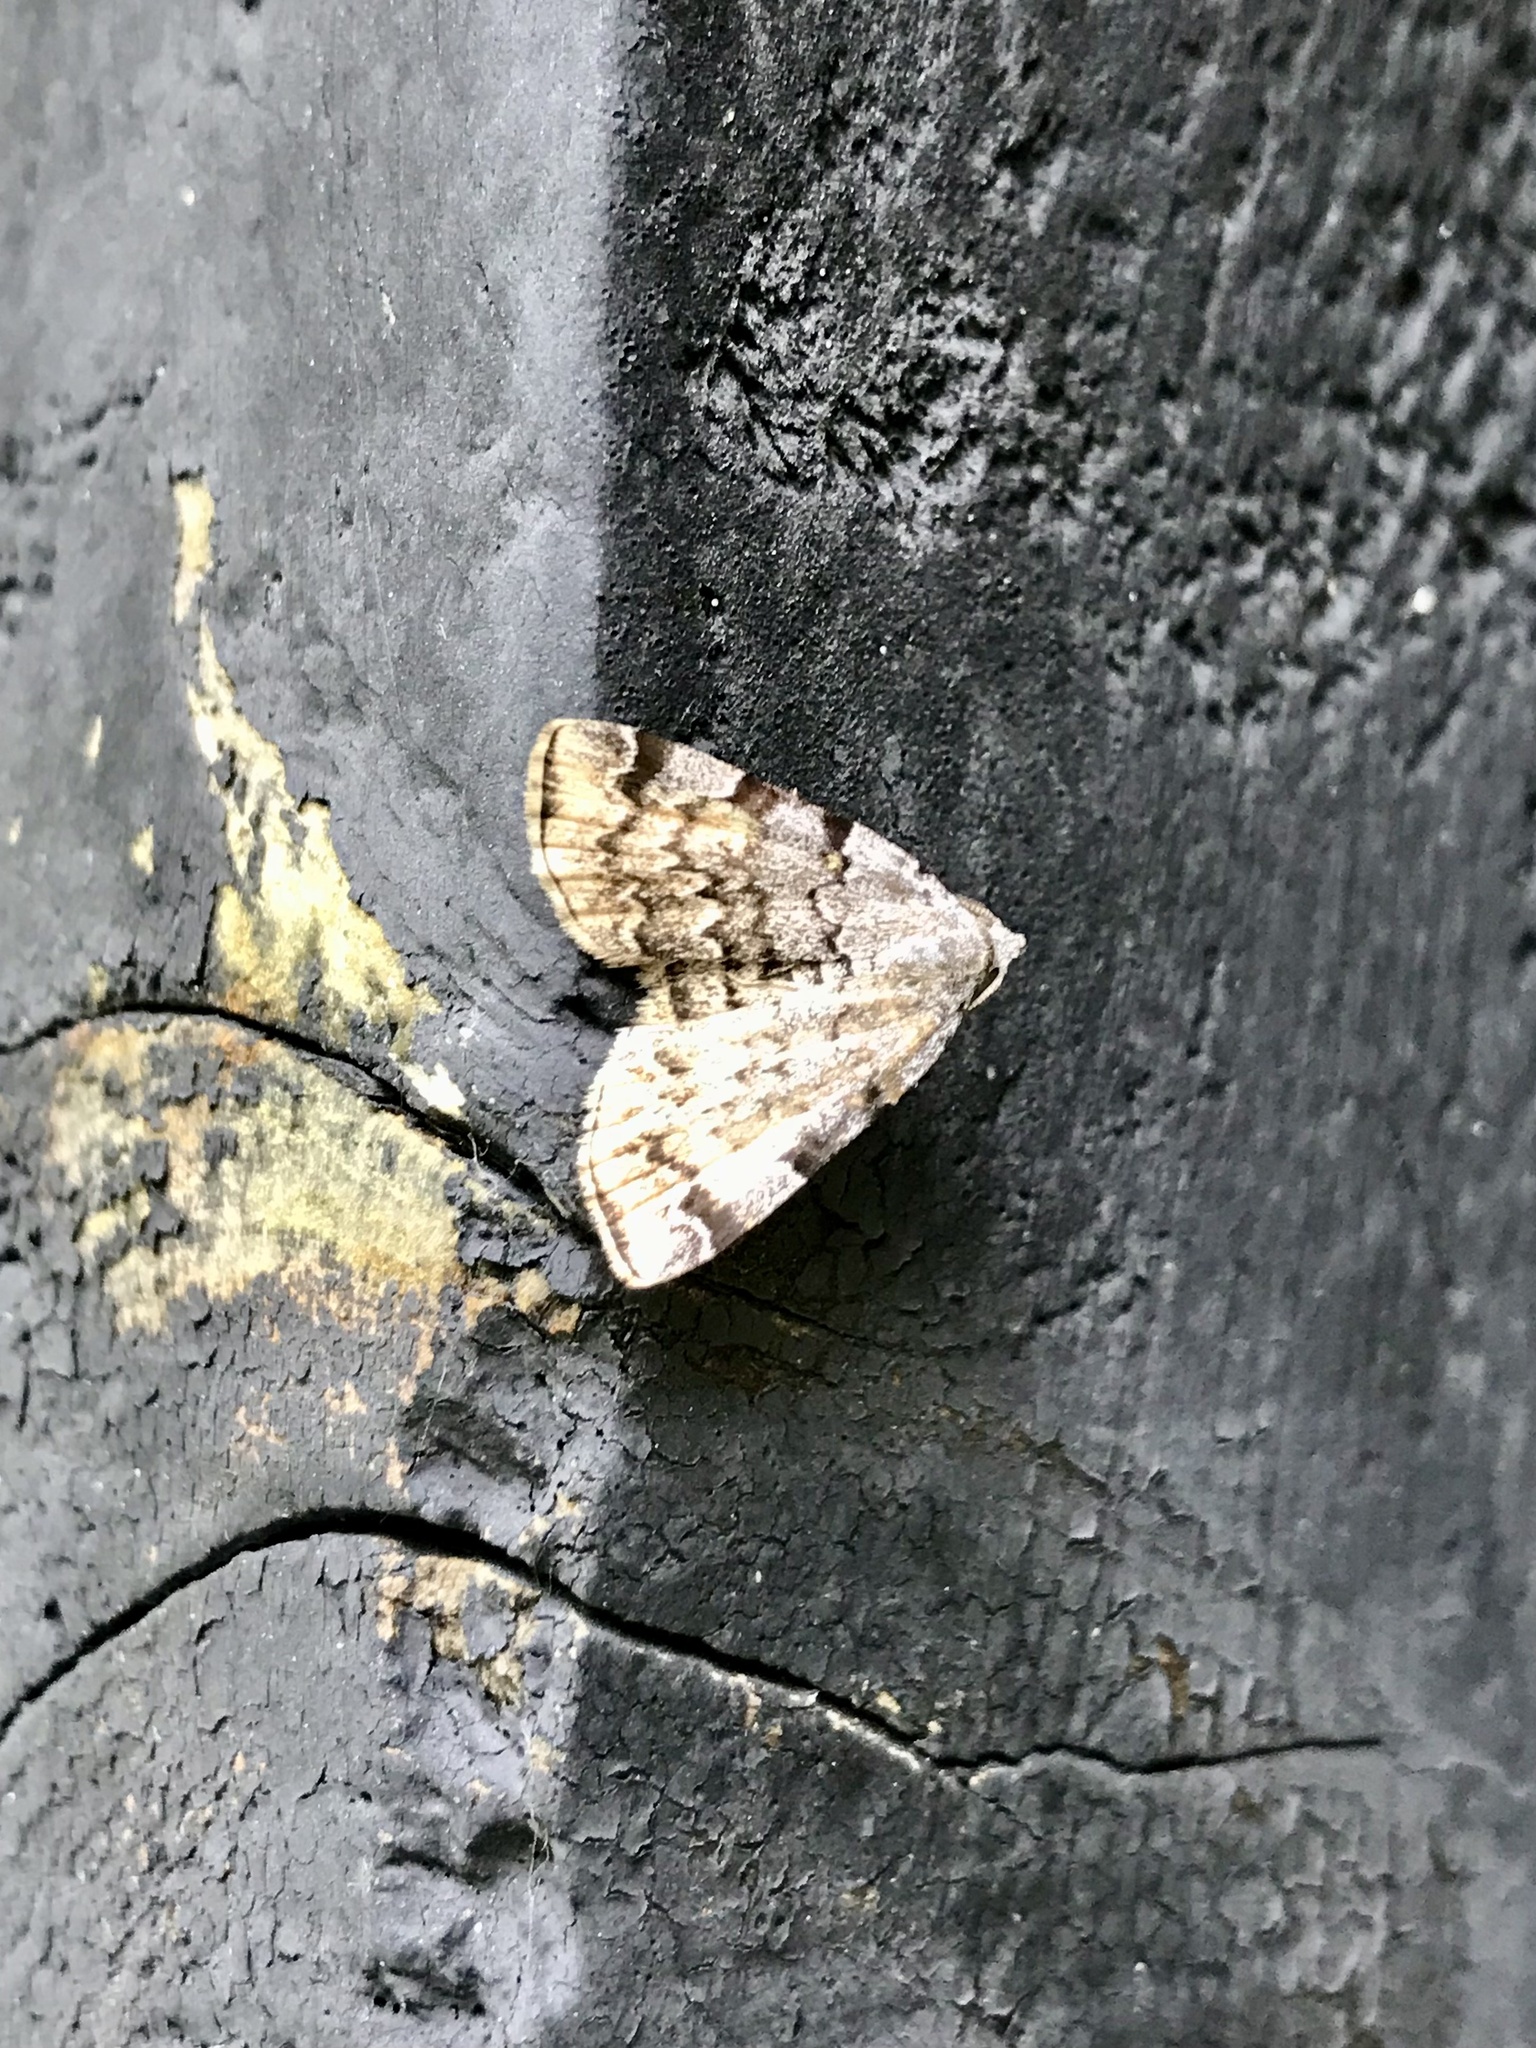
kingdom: Animalia
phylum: Arthropoda
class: Insecta
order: Lepidoptera
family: Erebidae
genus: Idia
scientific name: Idia americalis
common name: American idia moth
